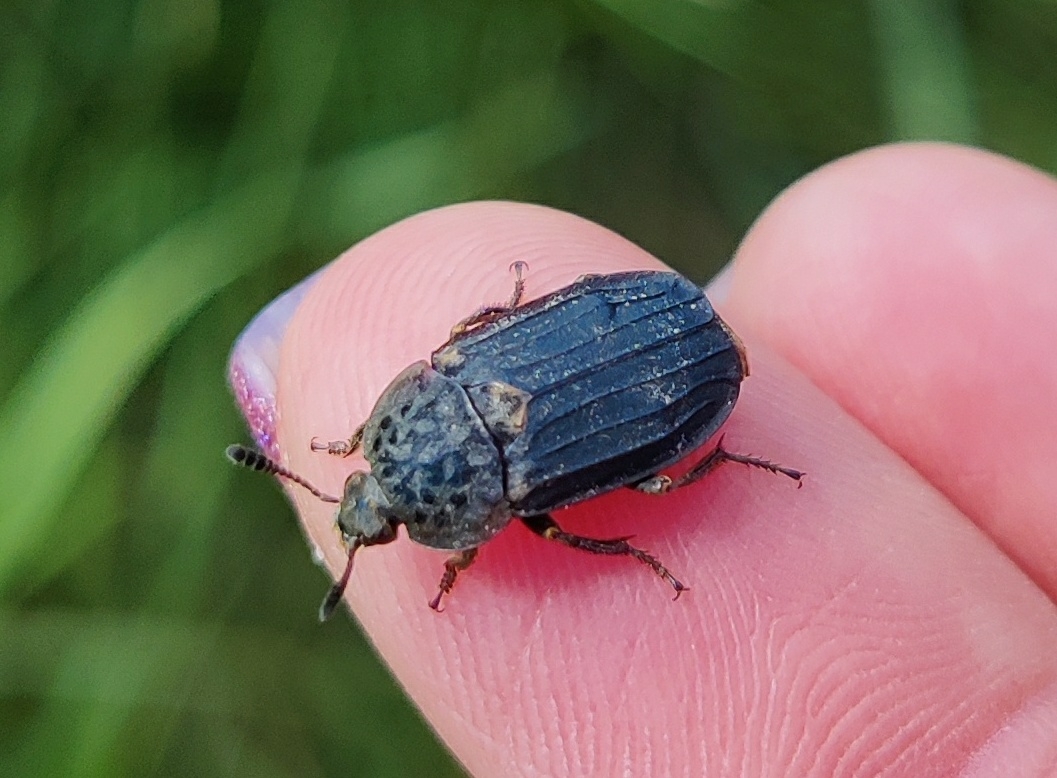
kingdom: Animalia
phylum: Arthropoda
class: Insecta
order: Coleoptera
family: Staphylinidae
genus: Thanatophilus
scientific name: Thanatophilus sinuatus
